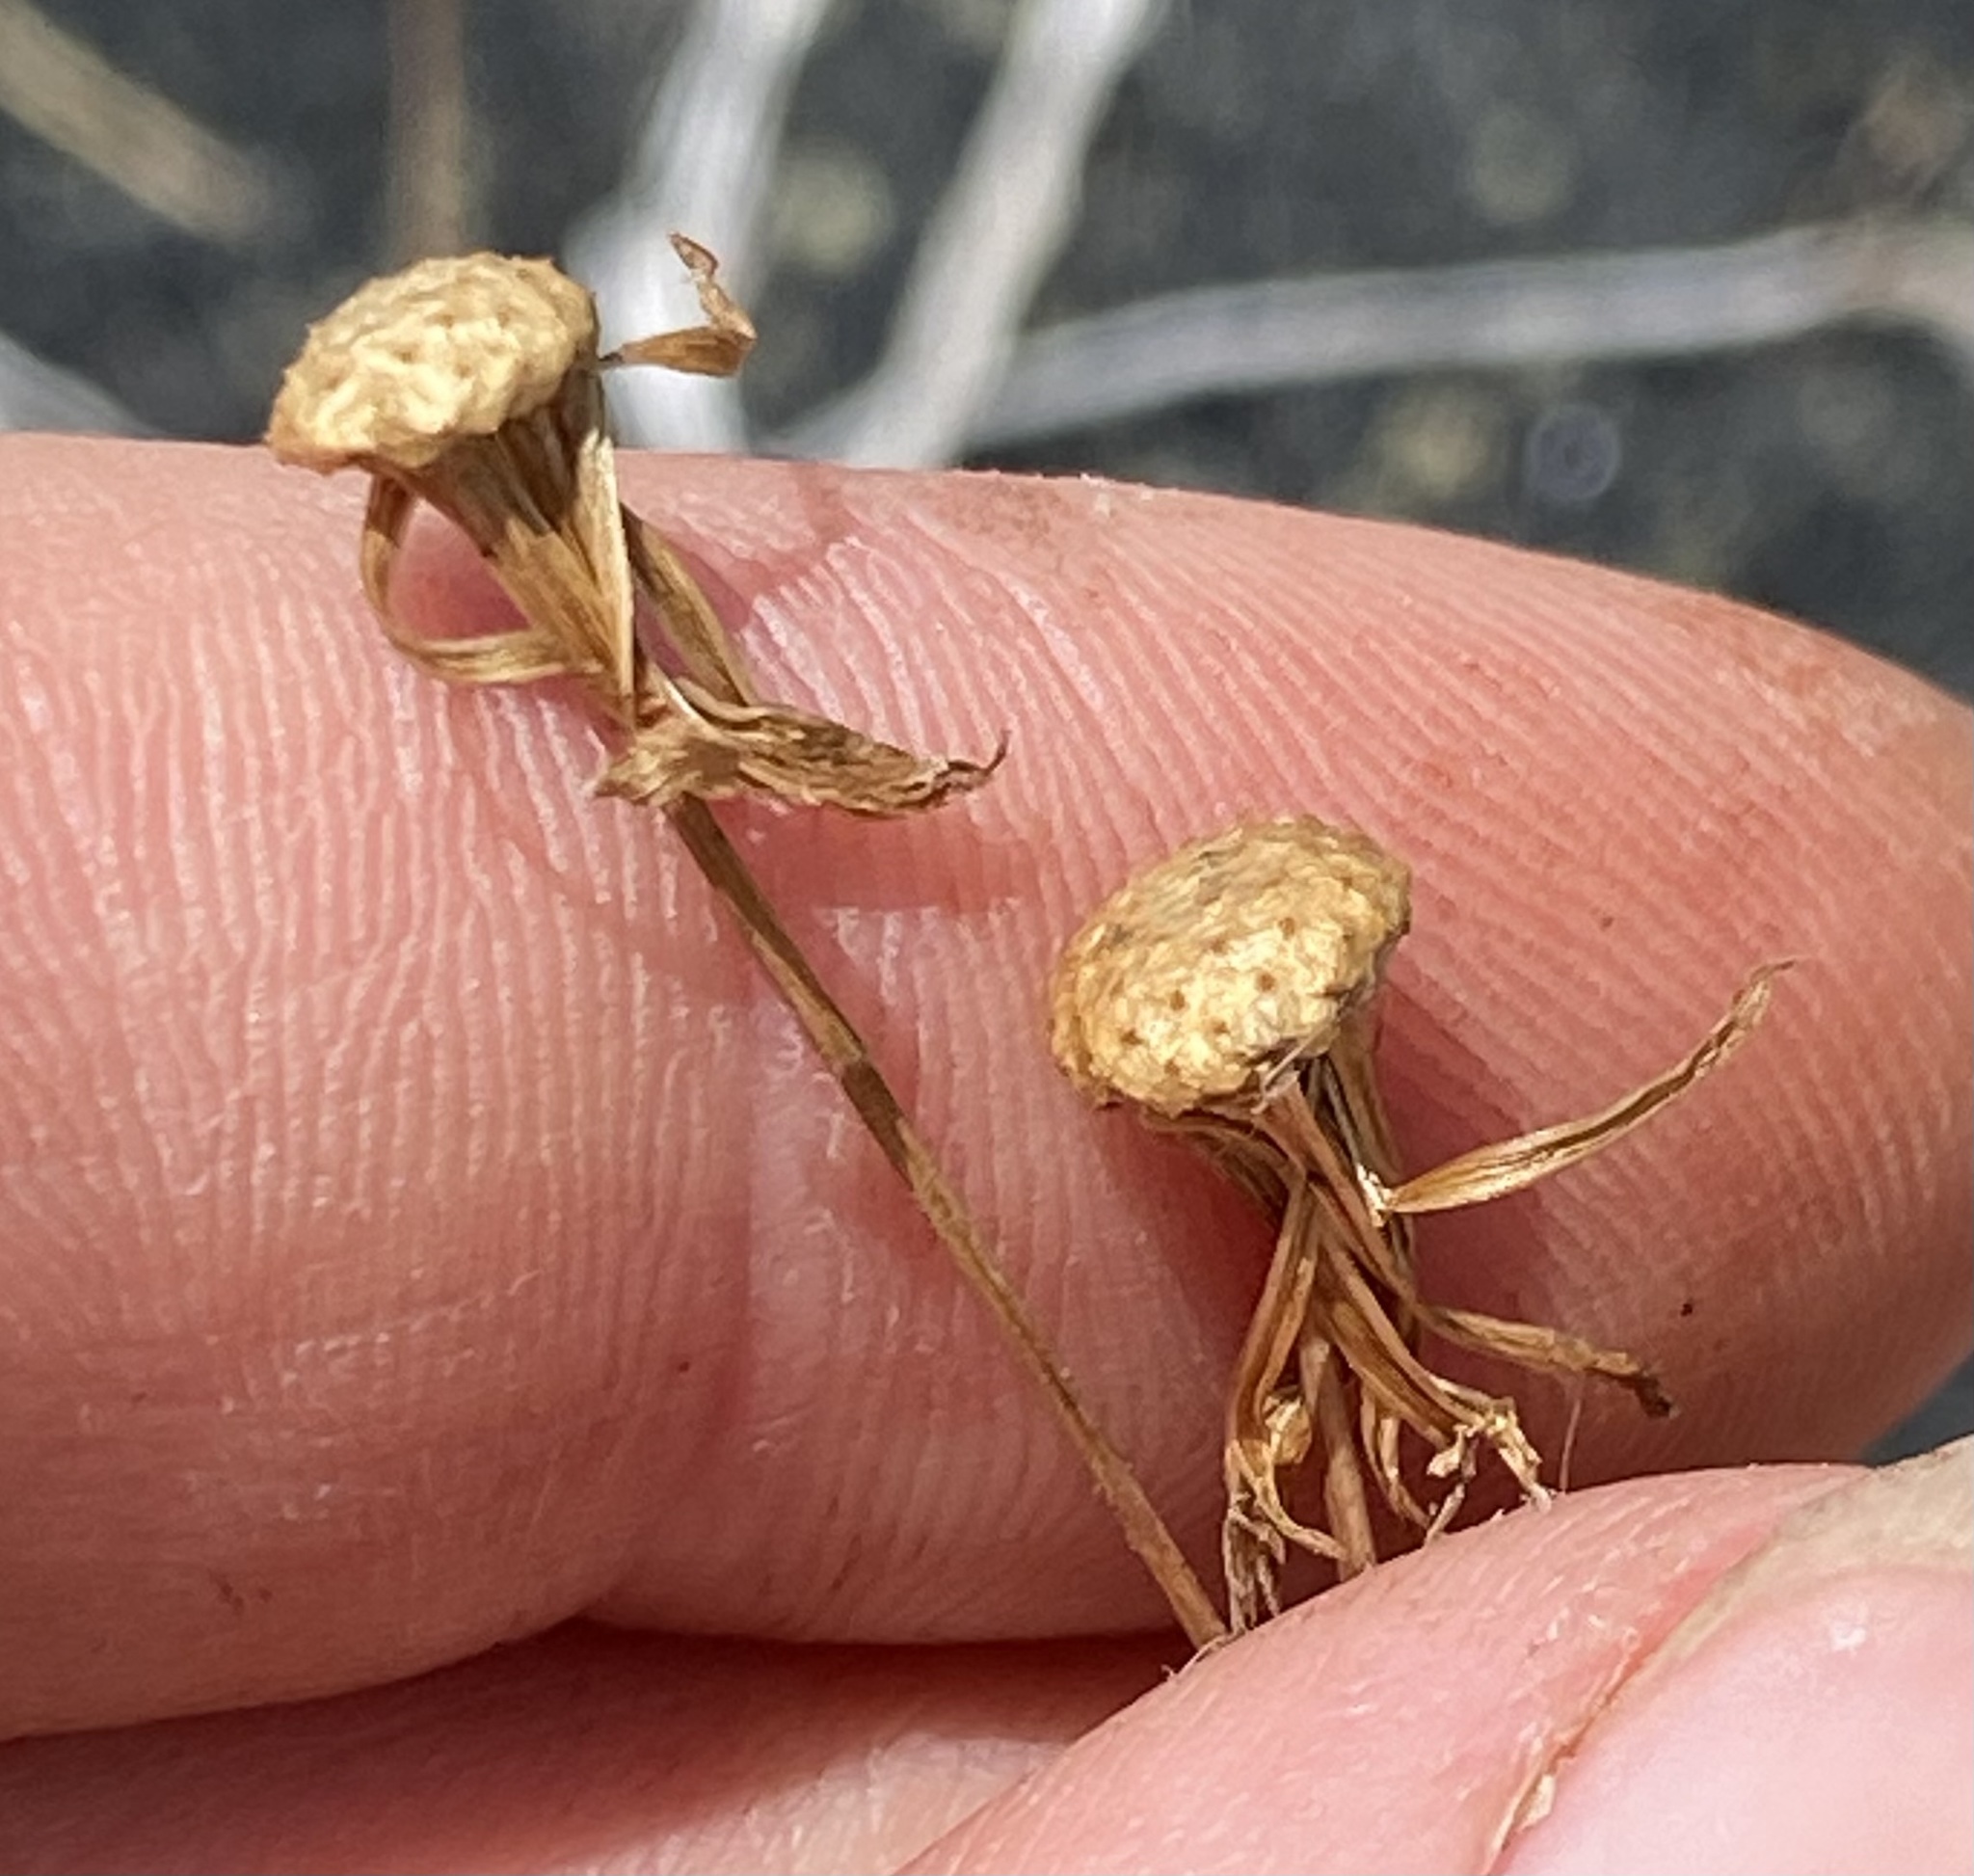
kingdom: Plantae
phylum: Tracheophyta
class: Magnoliopsida
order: Asterales
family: Asteraceae
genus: Emilia
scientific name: Emilia sonchifolia
